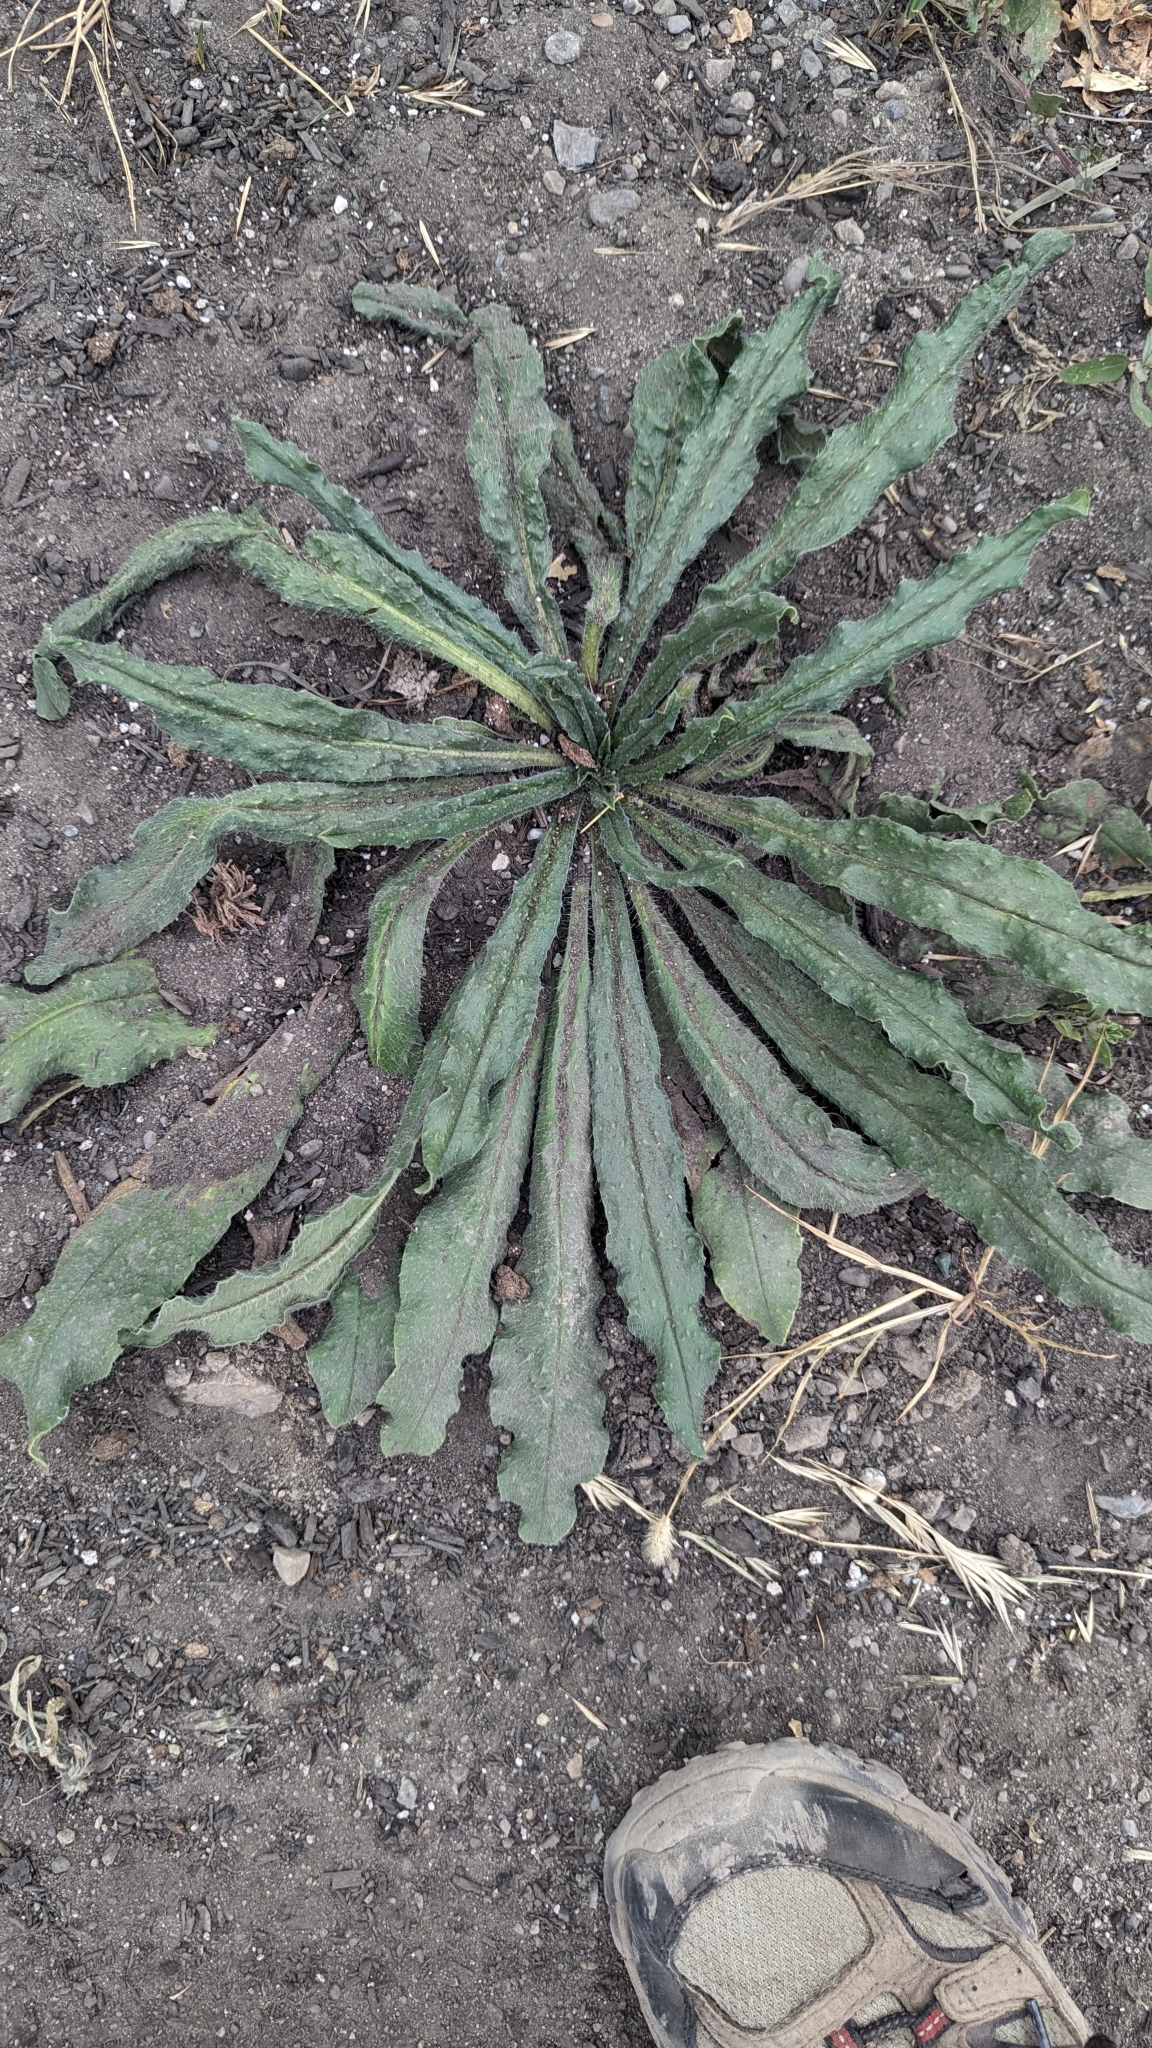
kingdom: Plantae
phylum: Tracheophyta
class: Magnoliopsida
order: Boraginales
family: Boraginaceae
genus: Echium
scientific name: Echium vulgare
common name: Common viper's bugloss
